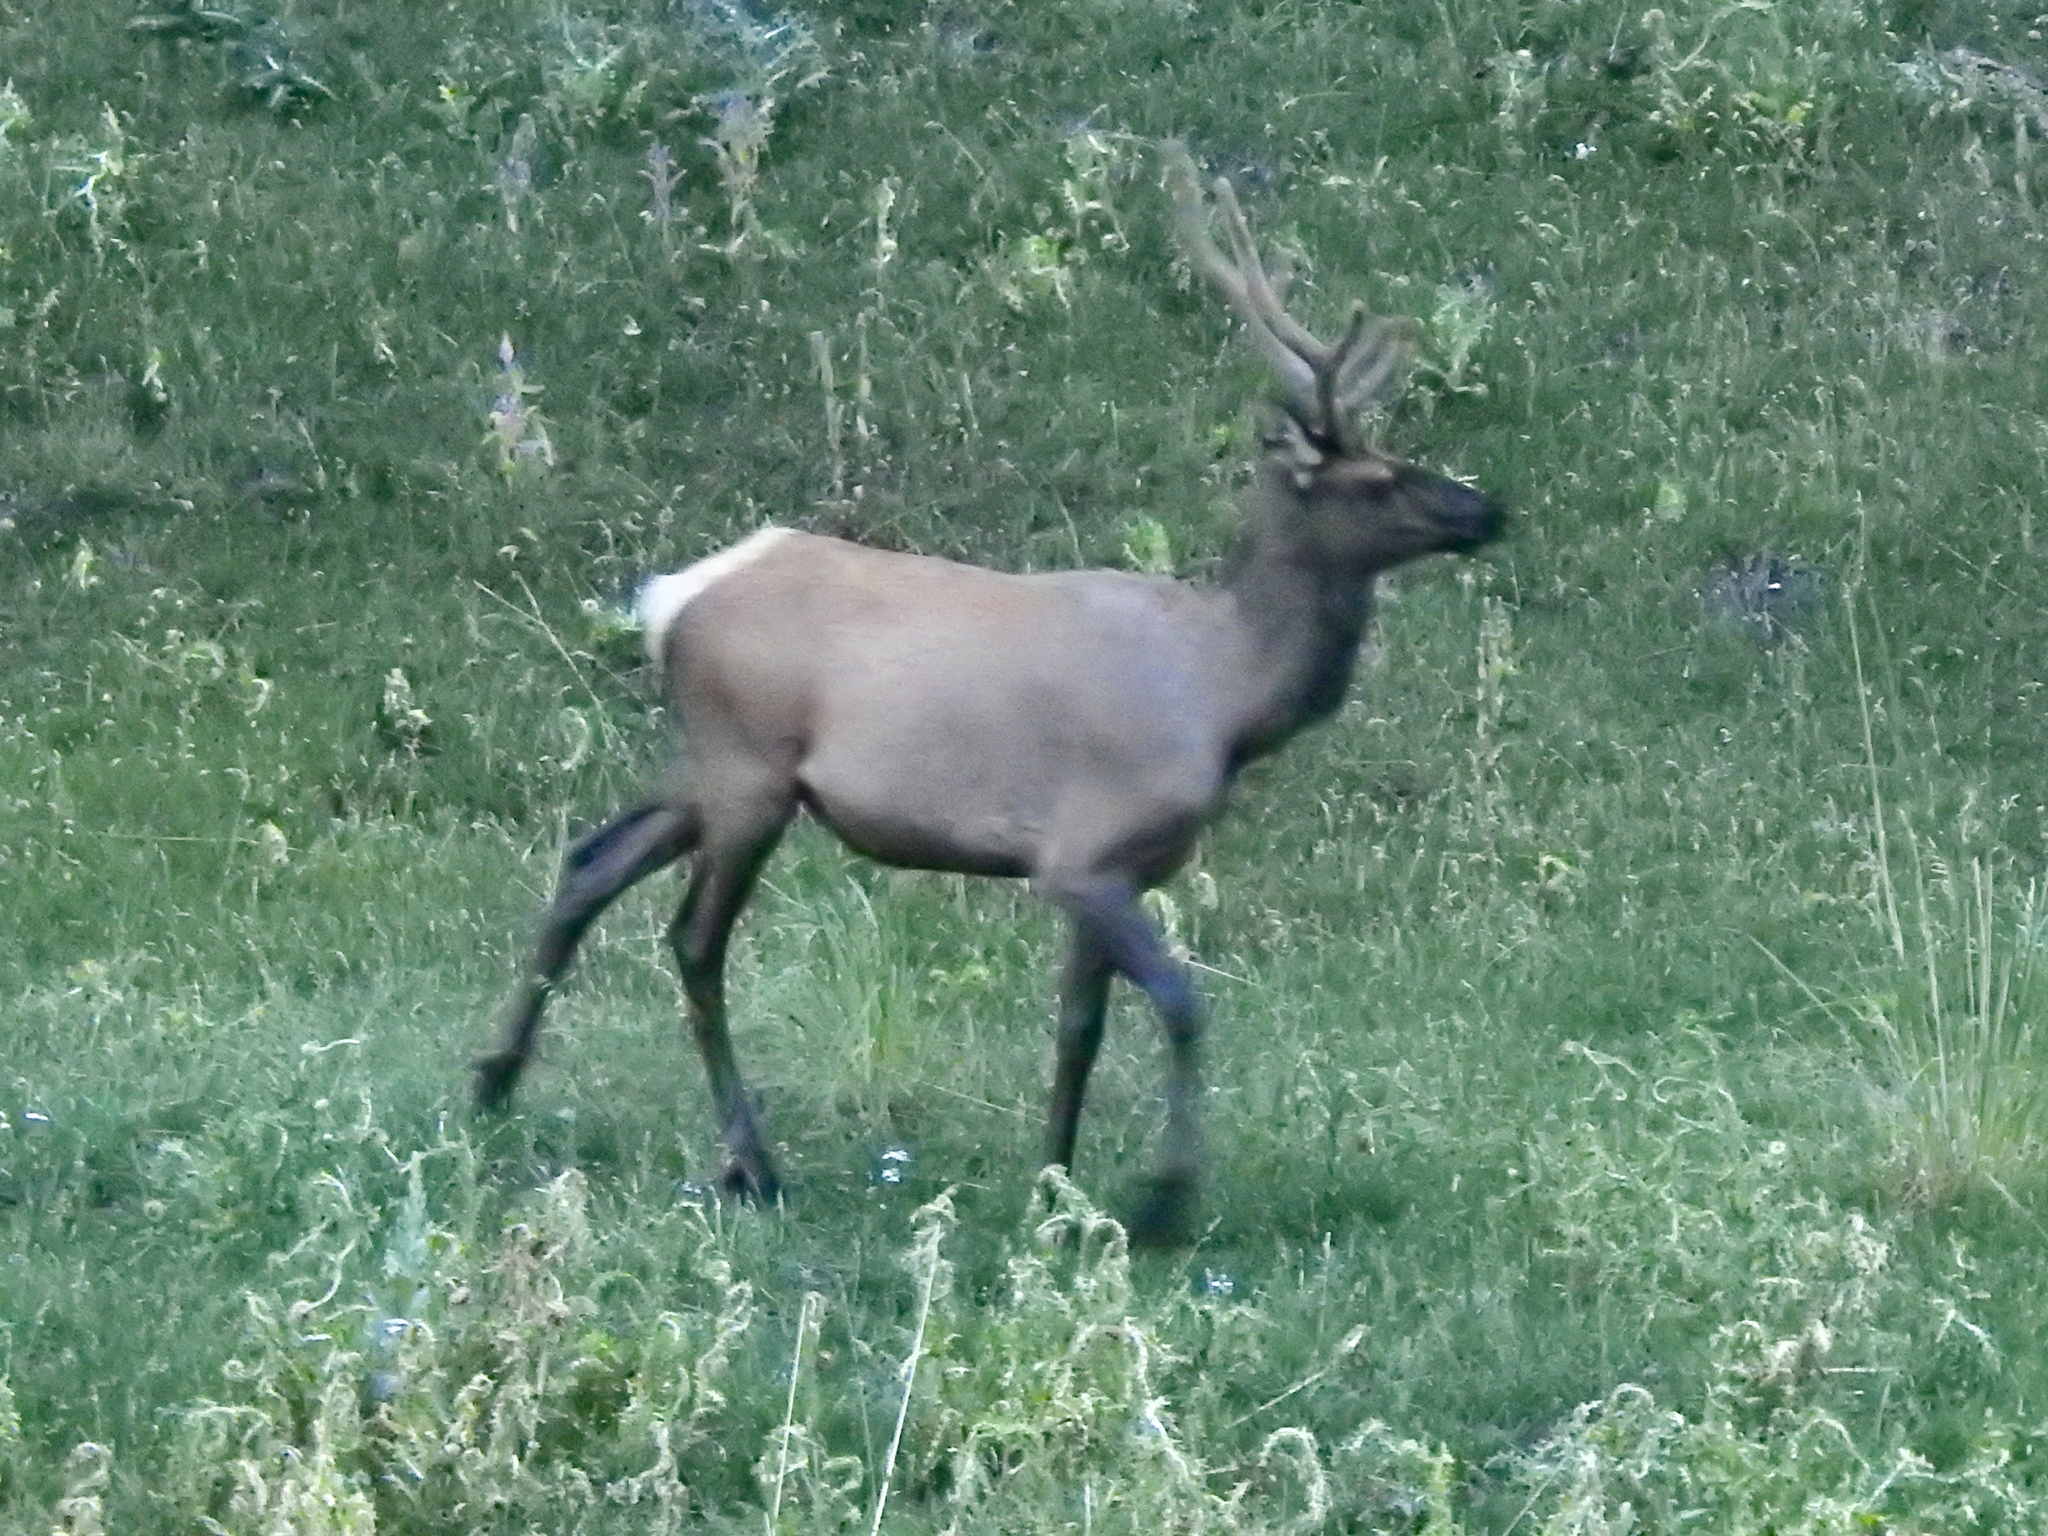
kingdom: Animalia
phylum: Chordata
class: Mammalia
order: Artiodactyla
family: Cervidae
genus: Cervus
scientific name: Cervus elaphus
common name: Red deer
